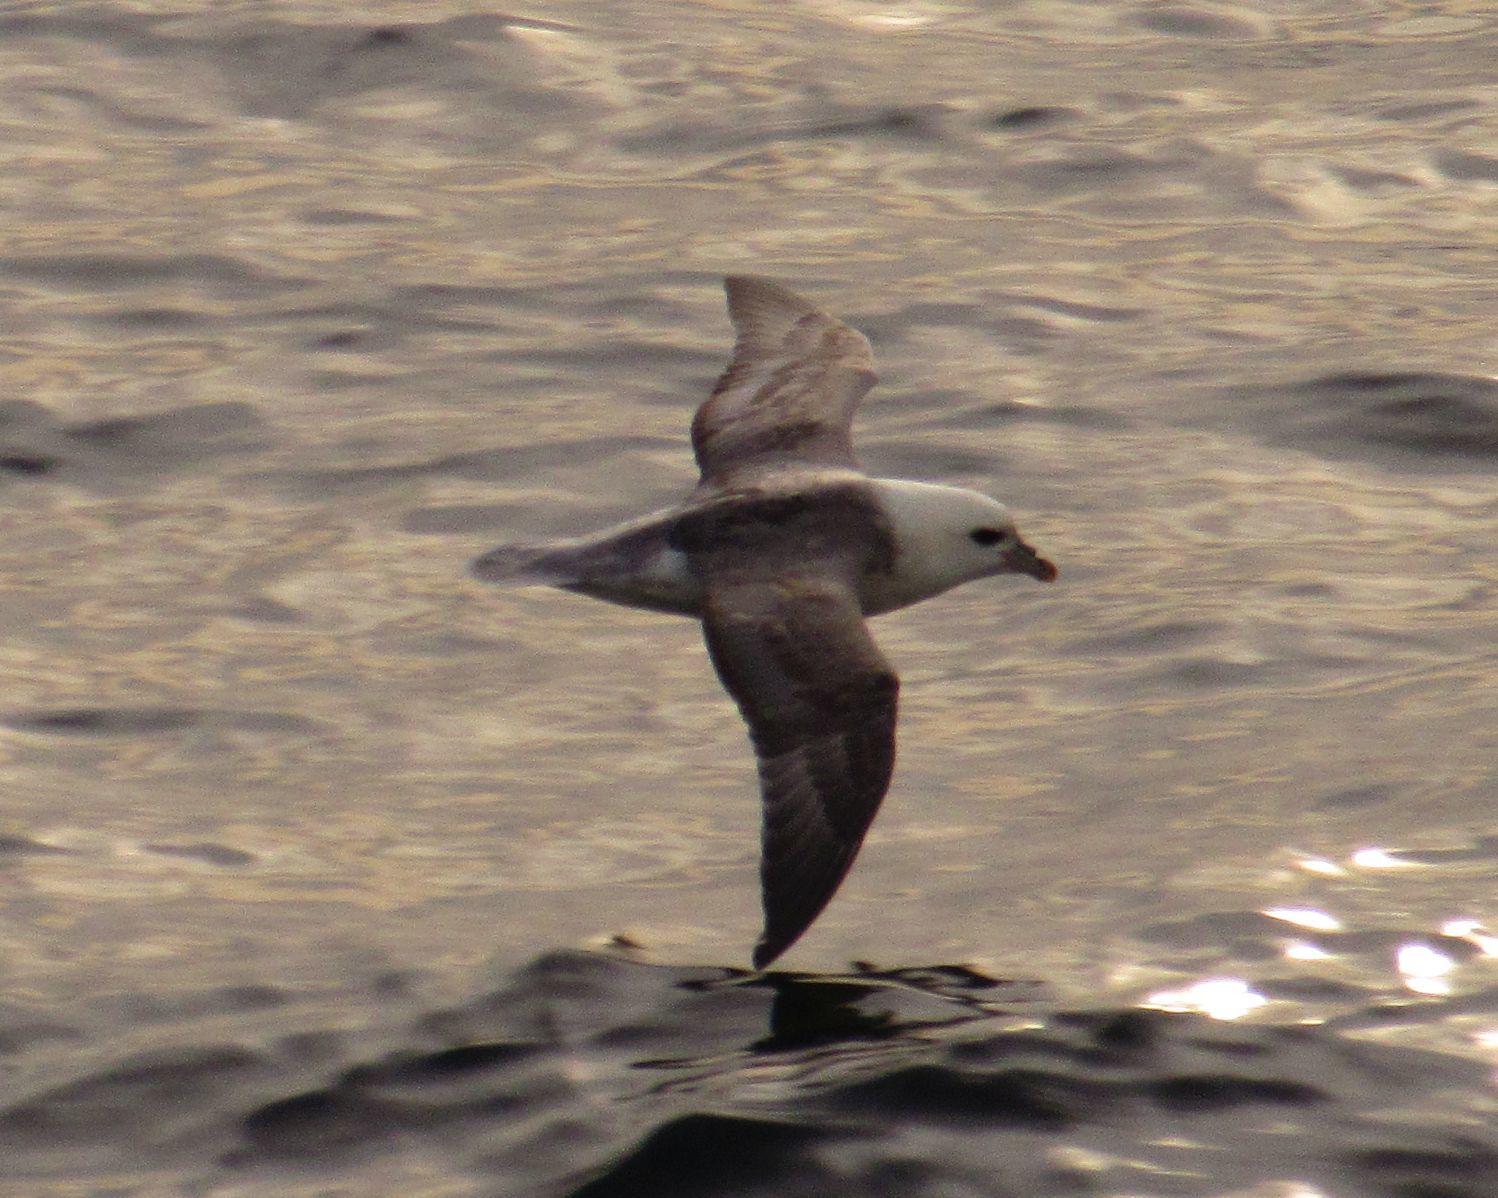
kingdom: Animalia
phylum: Chordata
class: Aves
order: Procellariiformes
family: Procellariidae
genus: Fulmarus
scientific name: Fulmarus glacialis
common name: Northern fulmar
